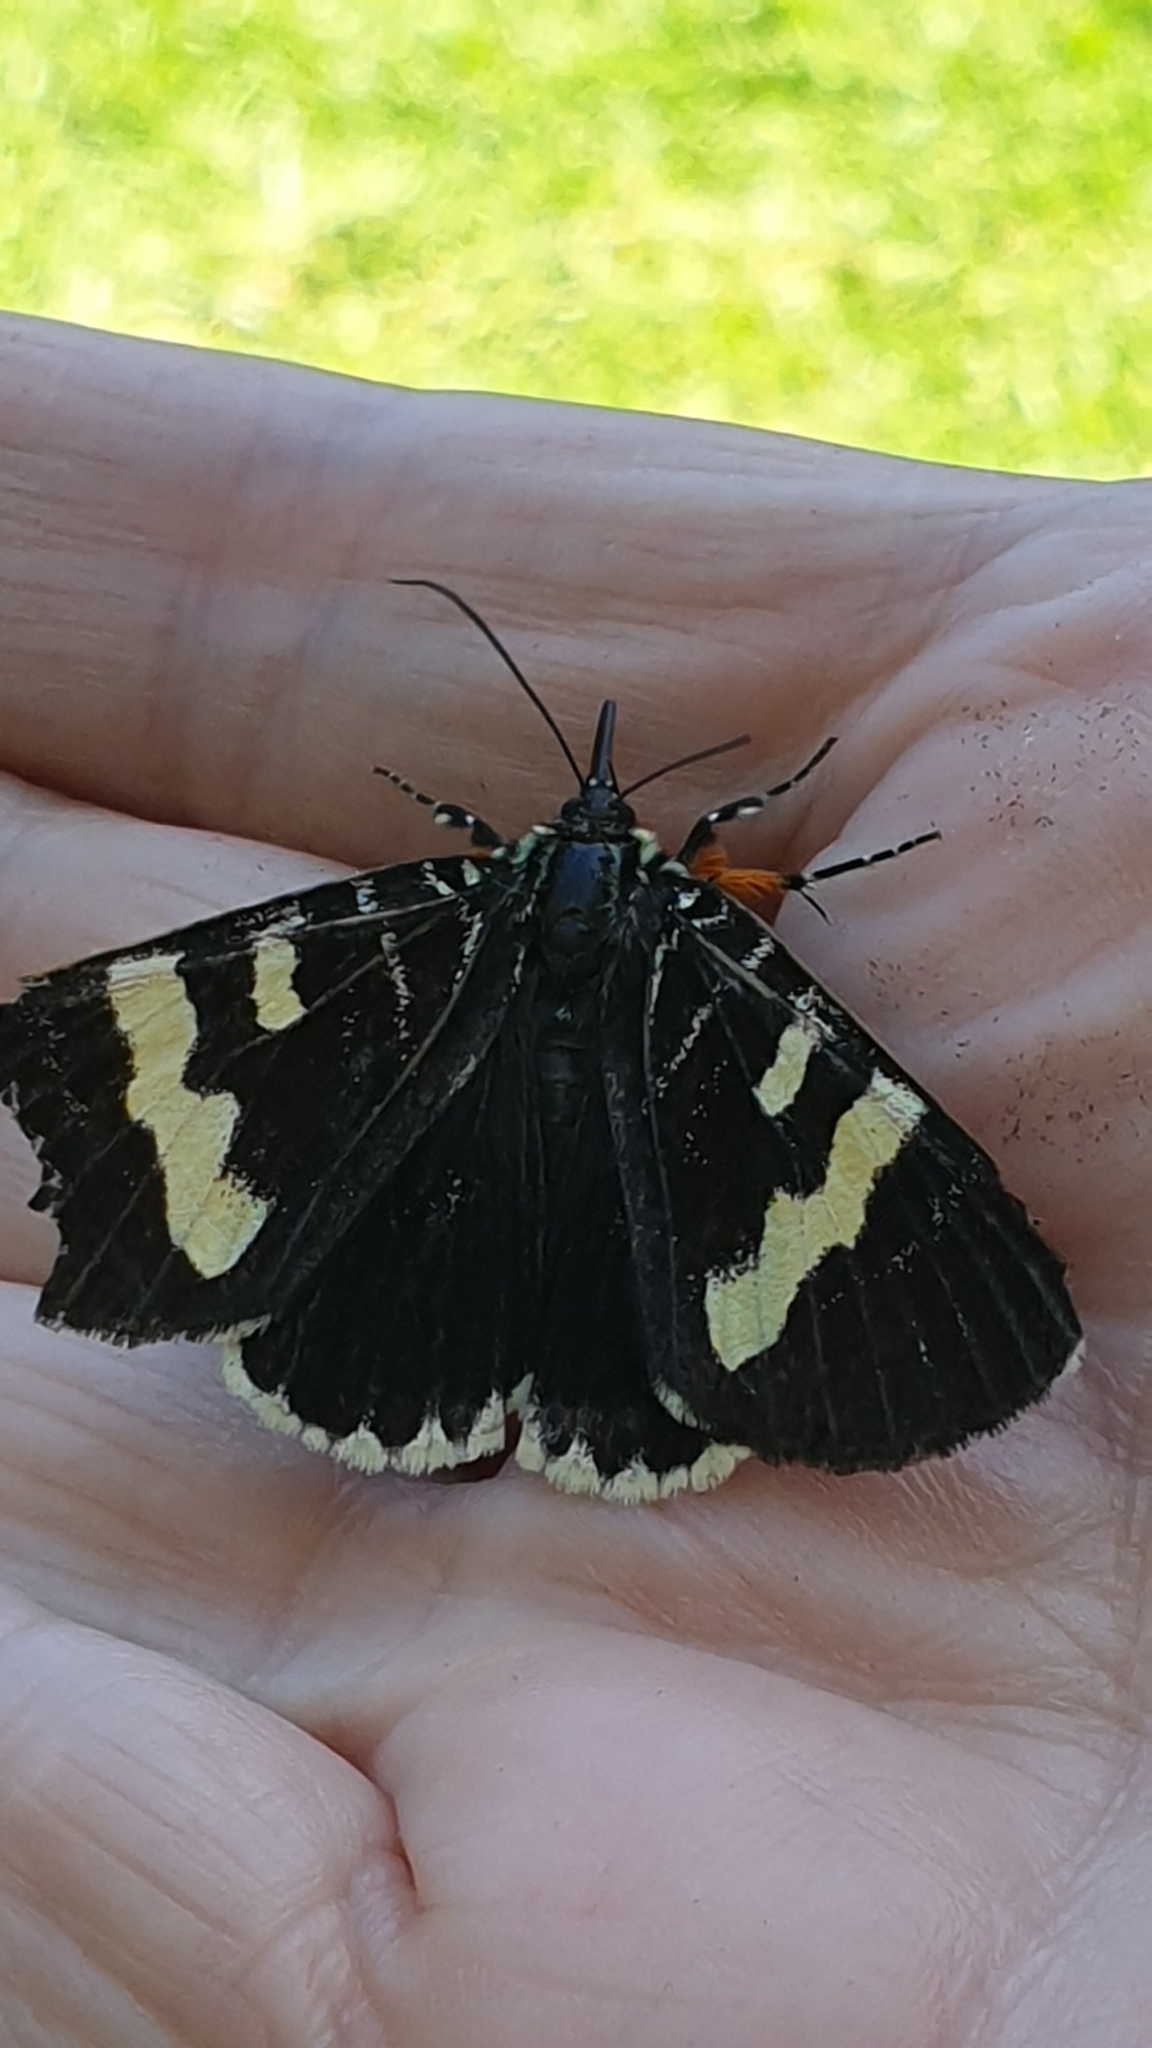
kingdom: Animalia
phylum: Arthropoda
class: Insecta
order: Lepidoptera
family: Noctuidae
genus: Phalaenoides
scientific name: Phalaenoides glycinae
